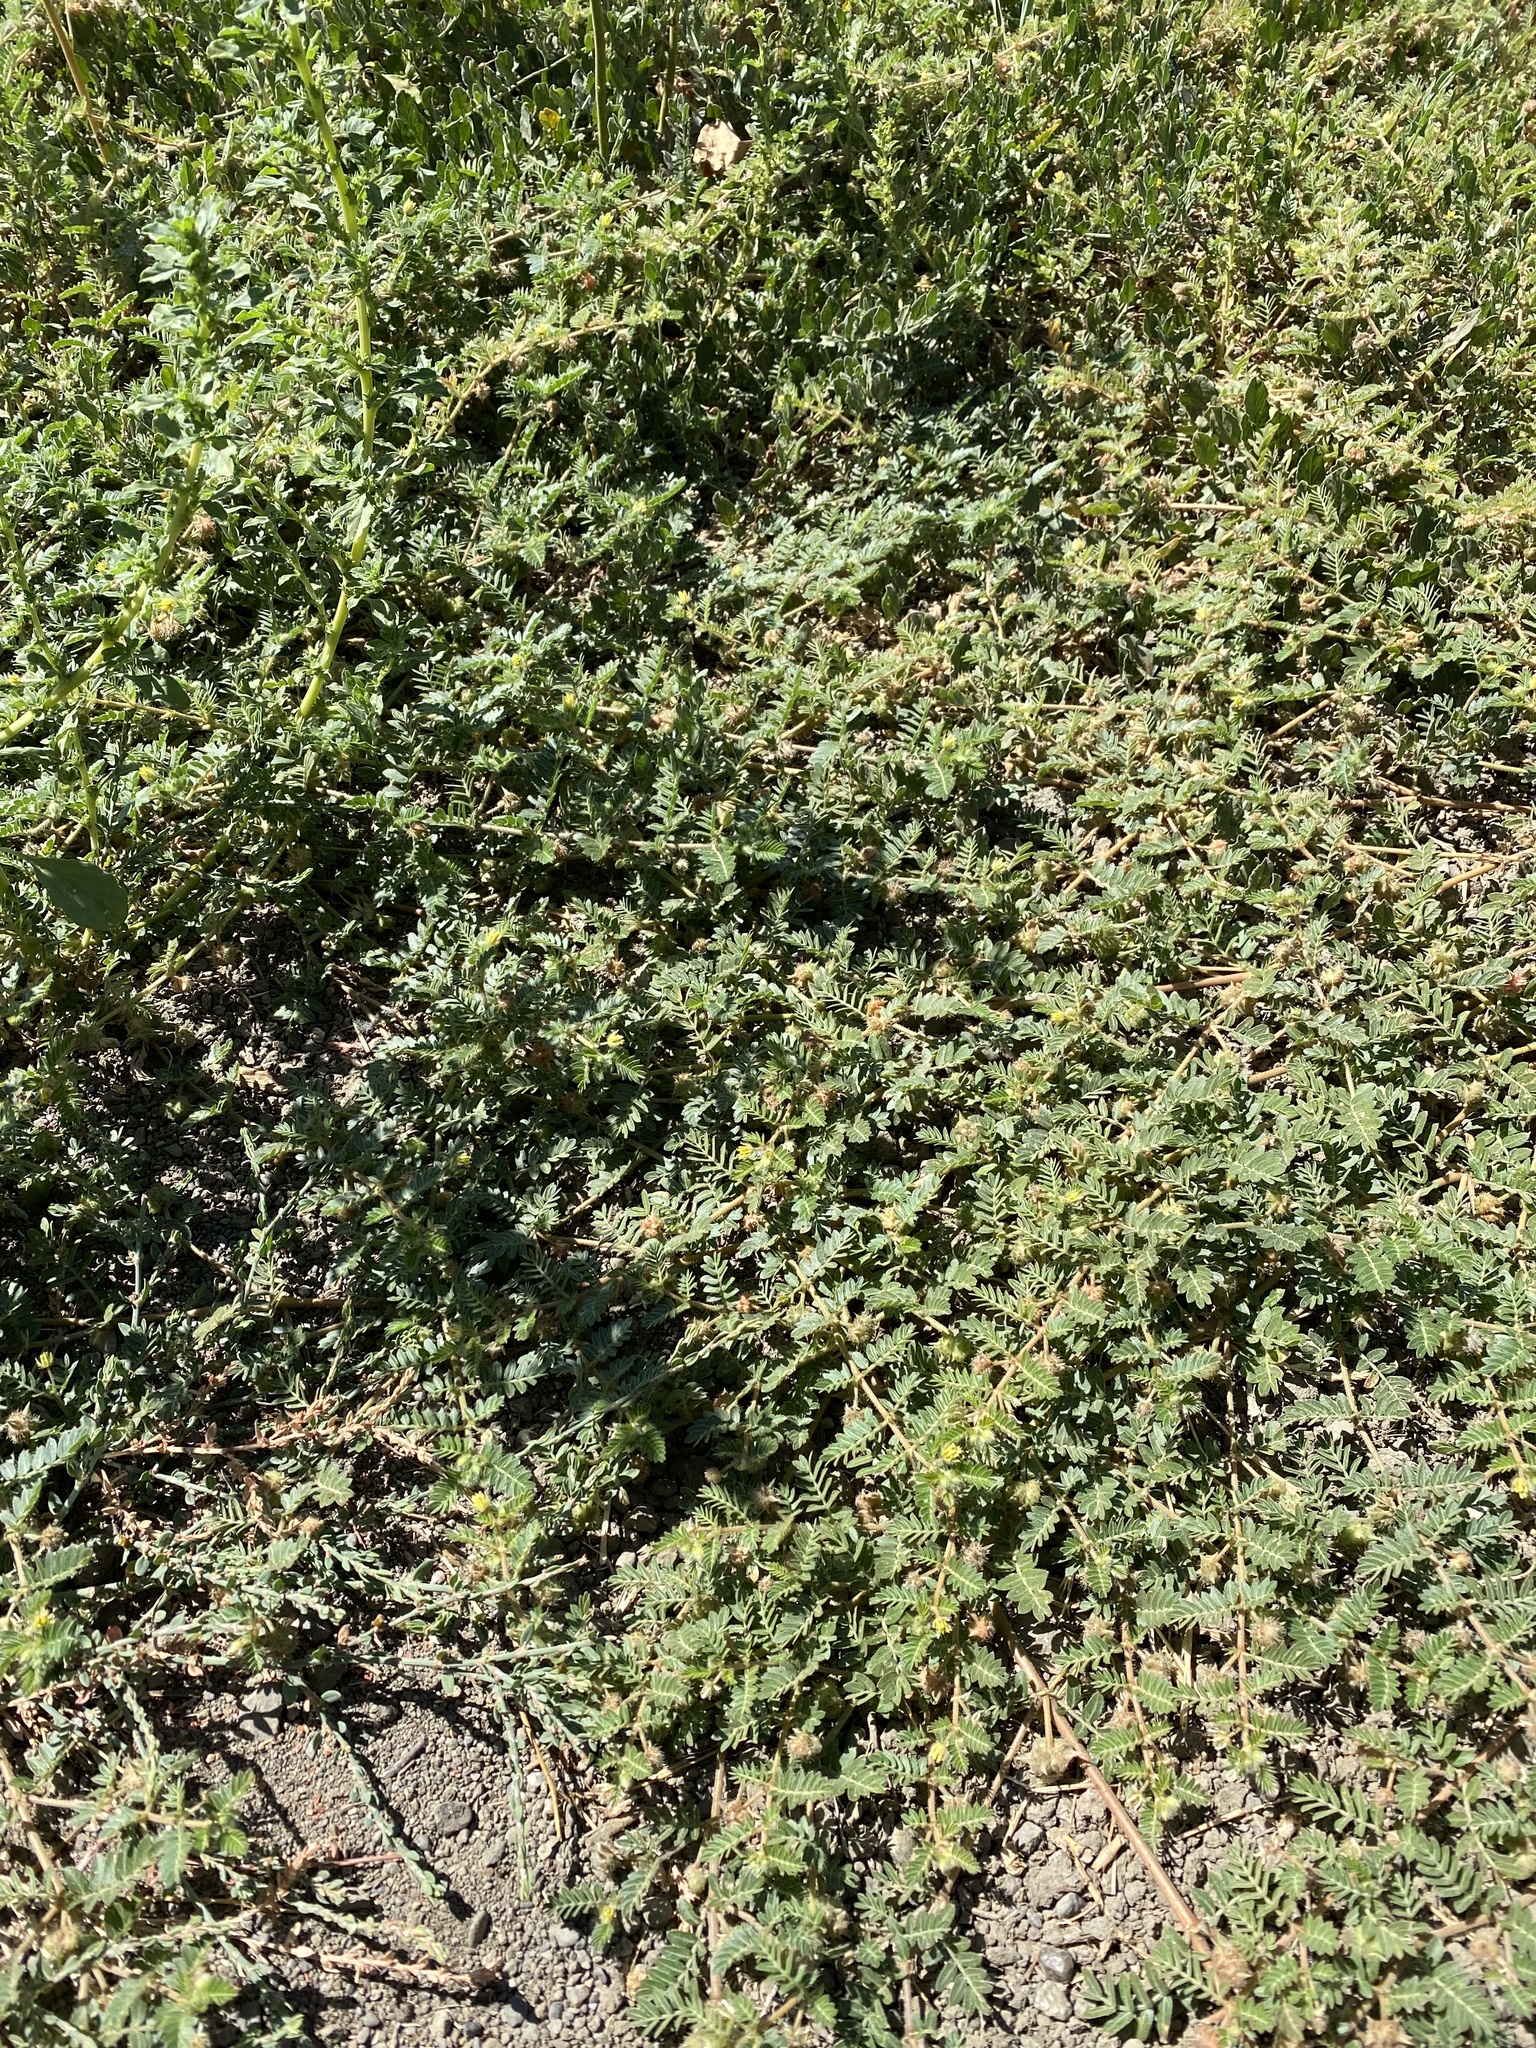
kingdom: Plantae
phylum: Tracheophyta
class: Magnoliopsida
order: Zygophyllales
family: Zygophyllaceae
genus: Tribulus
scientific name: Tribulus terrestris
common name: Puncturevine
